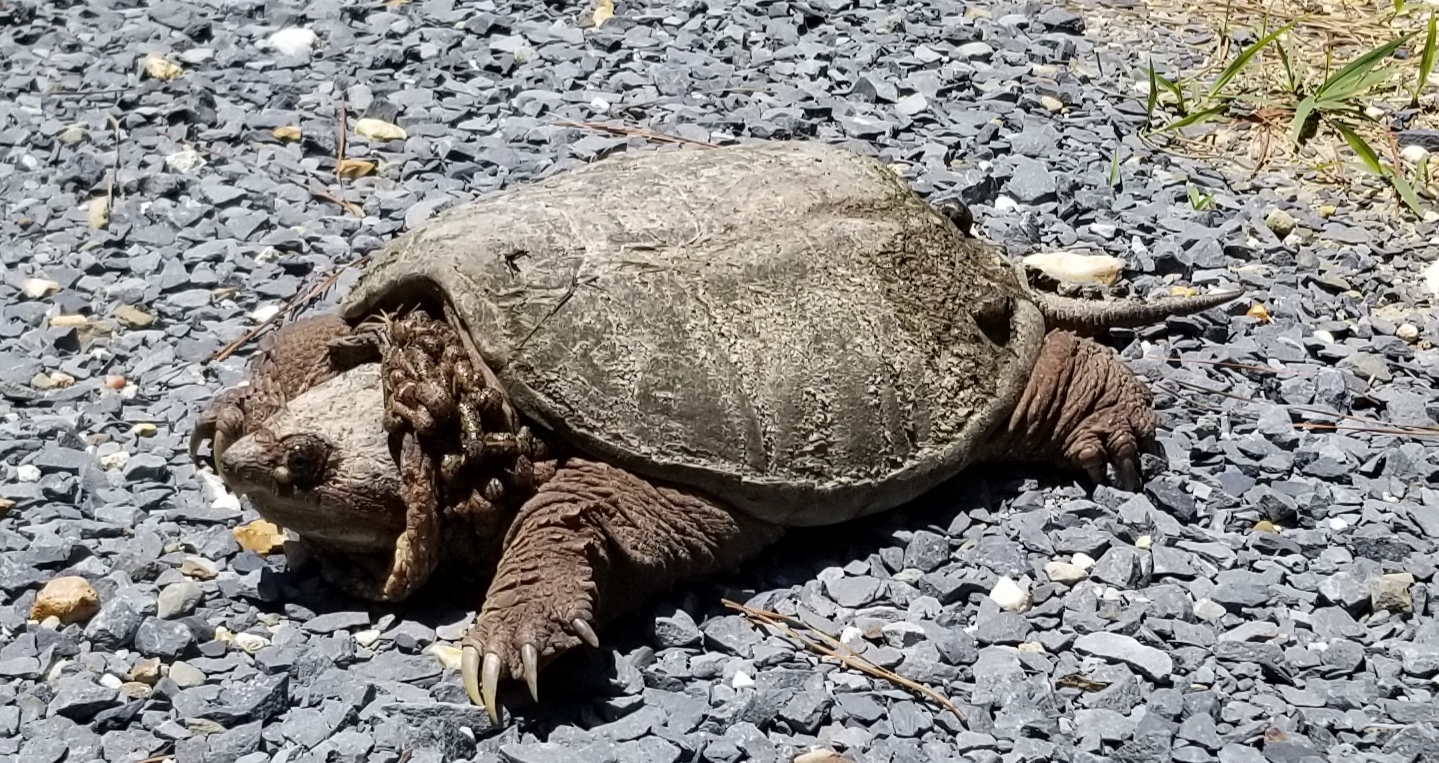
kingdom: Animalia
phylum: Chordata
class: Testudines
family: Chelydridae
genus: Chelydra
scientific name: Chelydra serpentina
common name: Common snapping turtle
